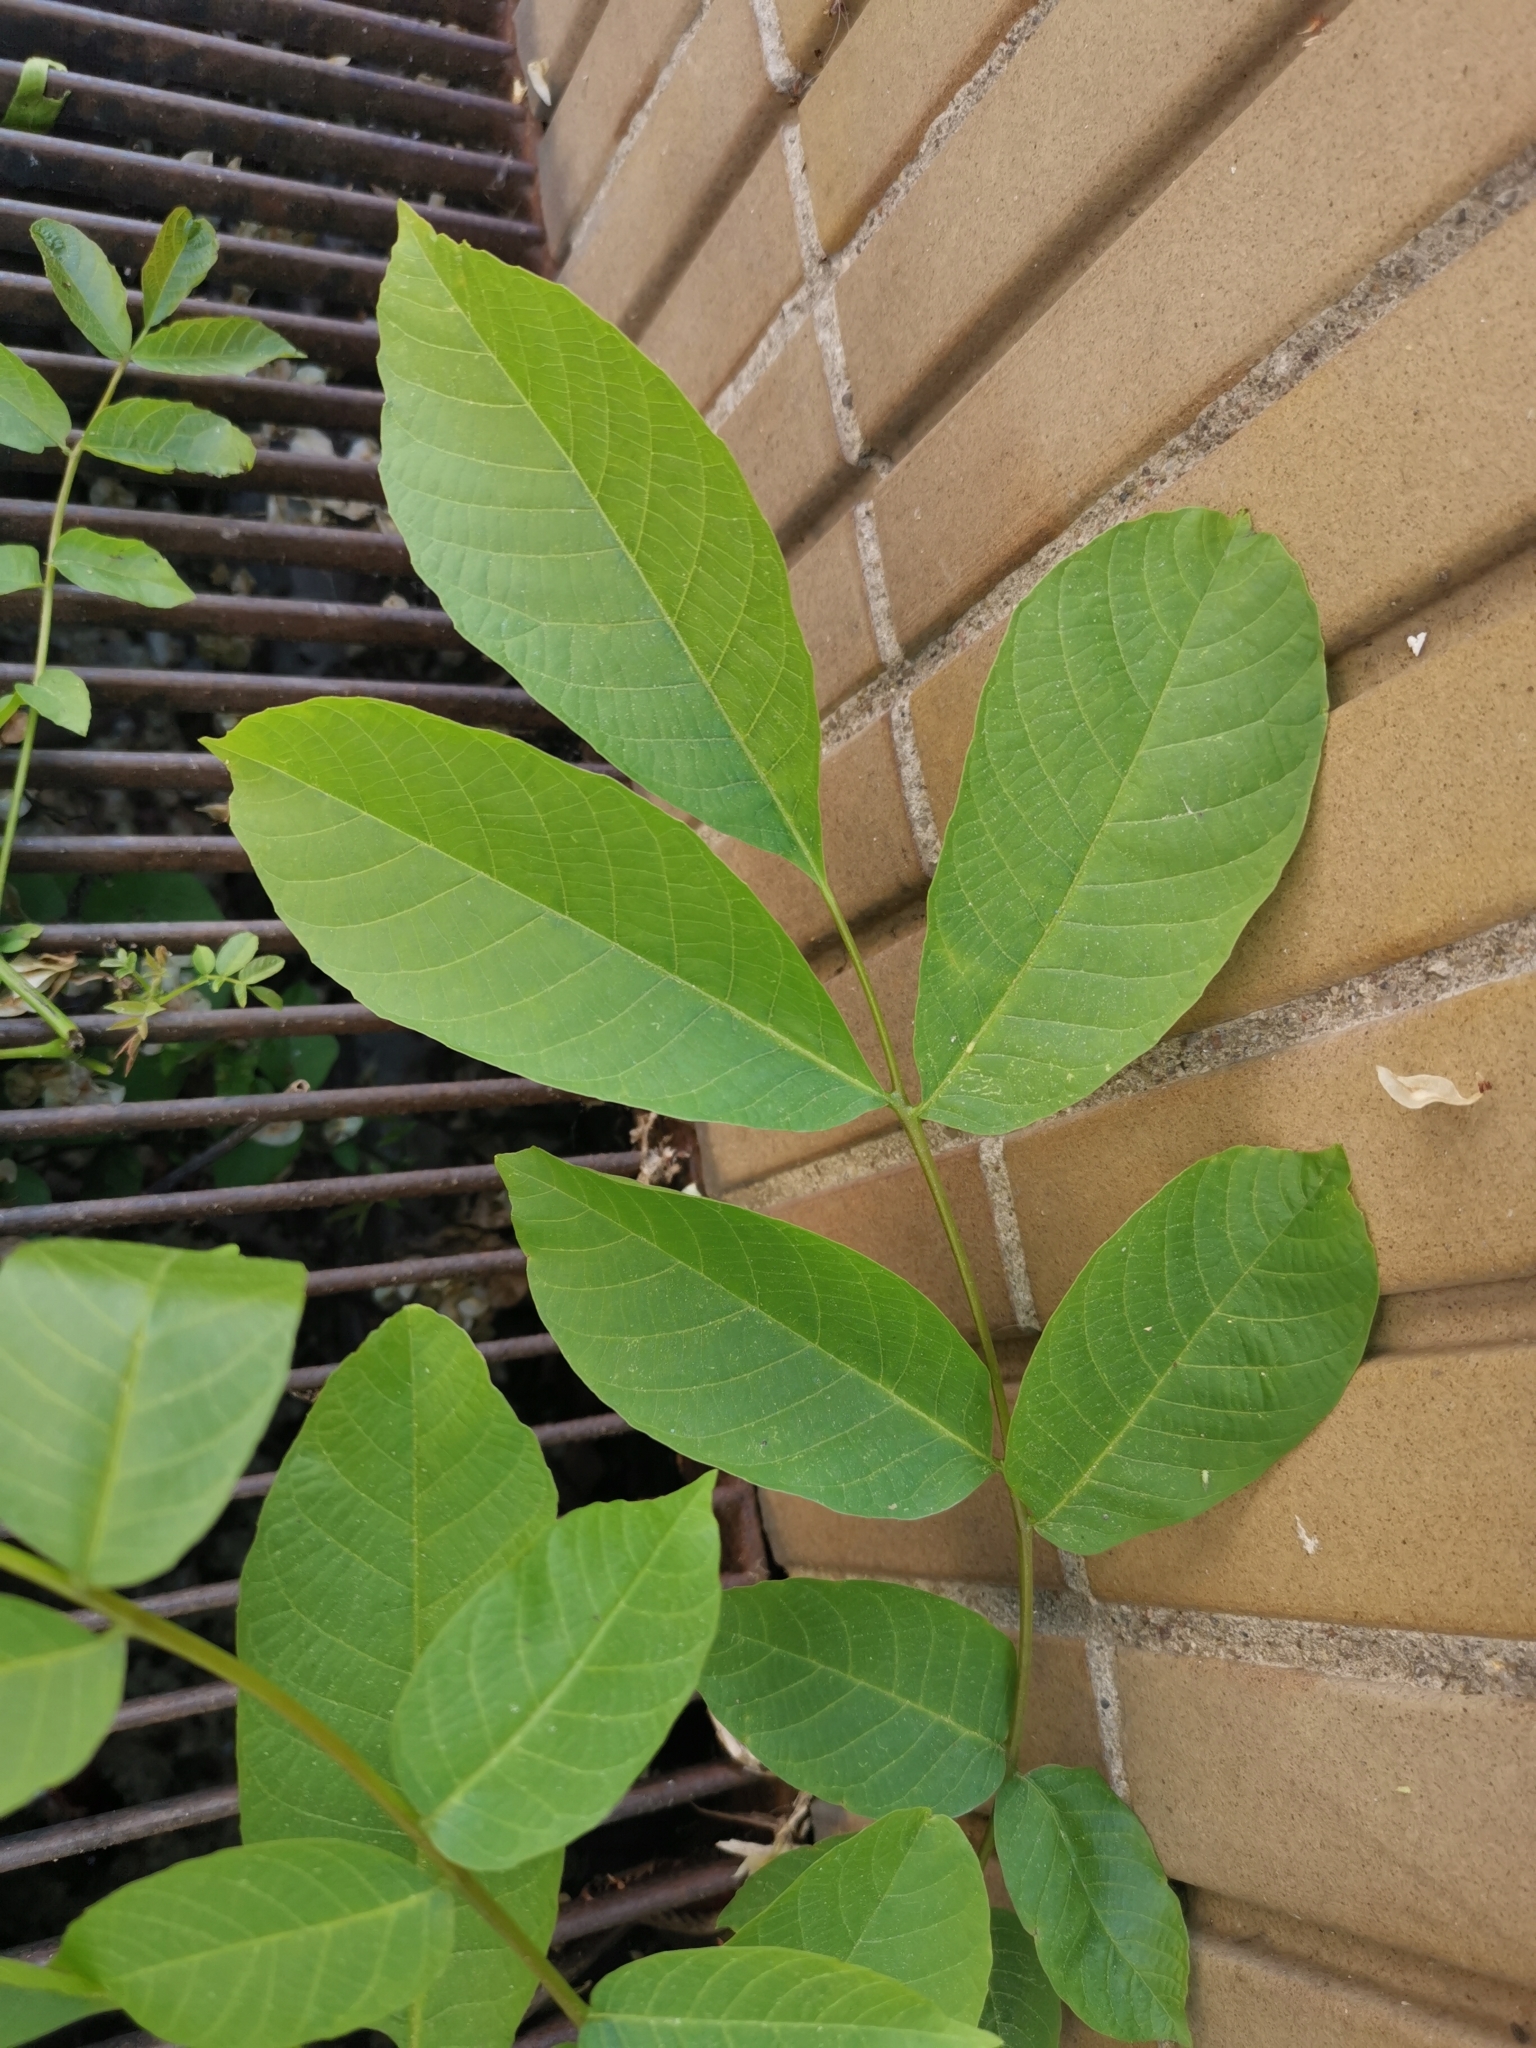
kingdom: Plantae
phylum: Tracheophyta
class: Magnoliopsida
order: Fagales
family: Juglandaceae
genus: Juglans
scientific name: Juglans regia
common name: Walnut
